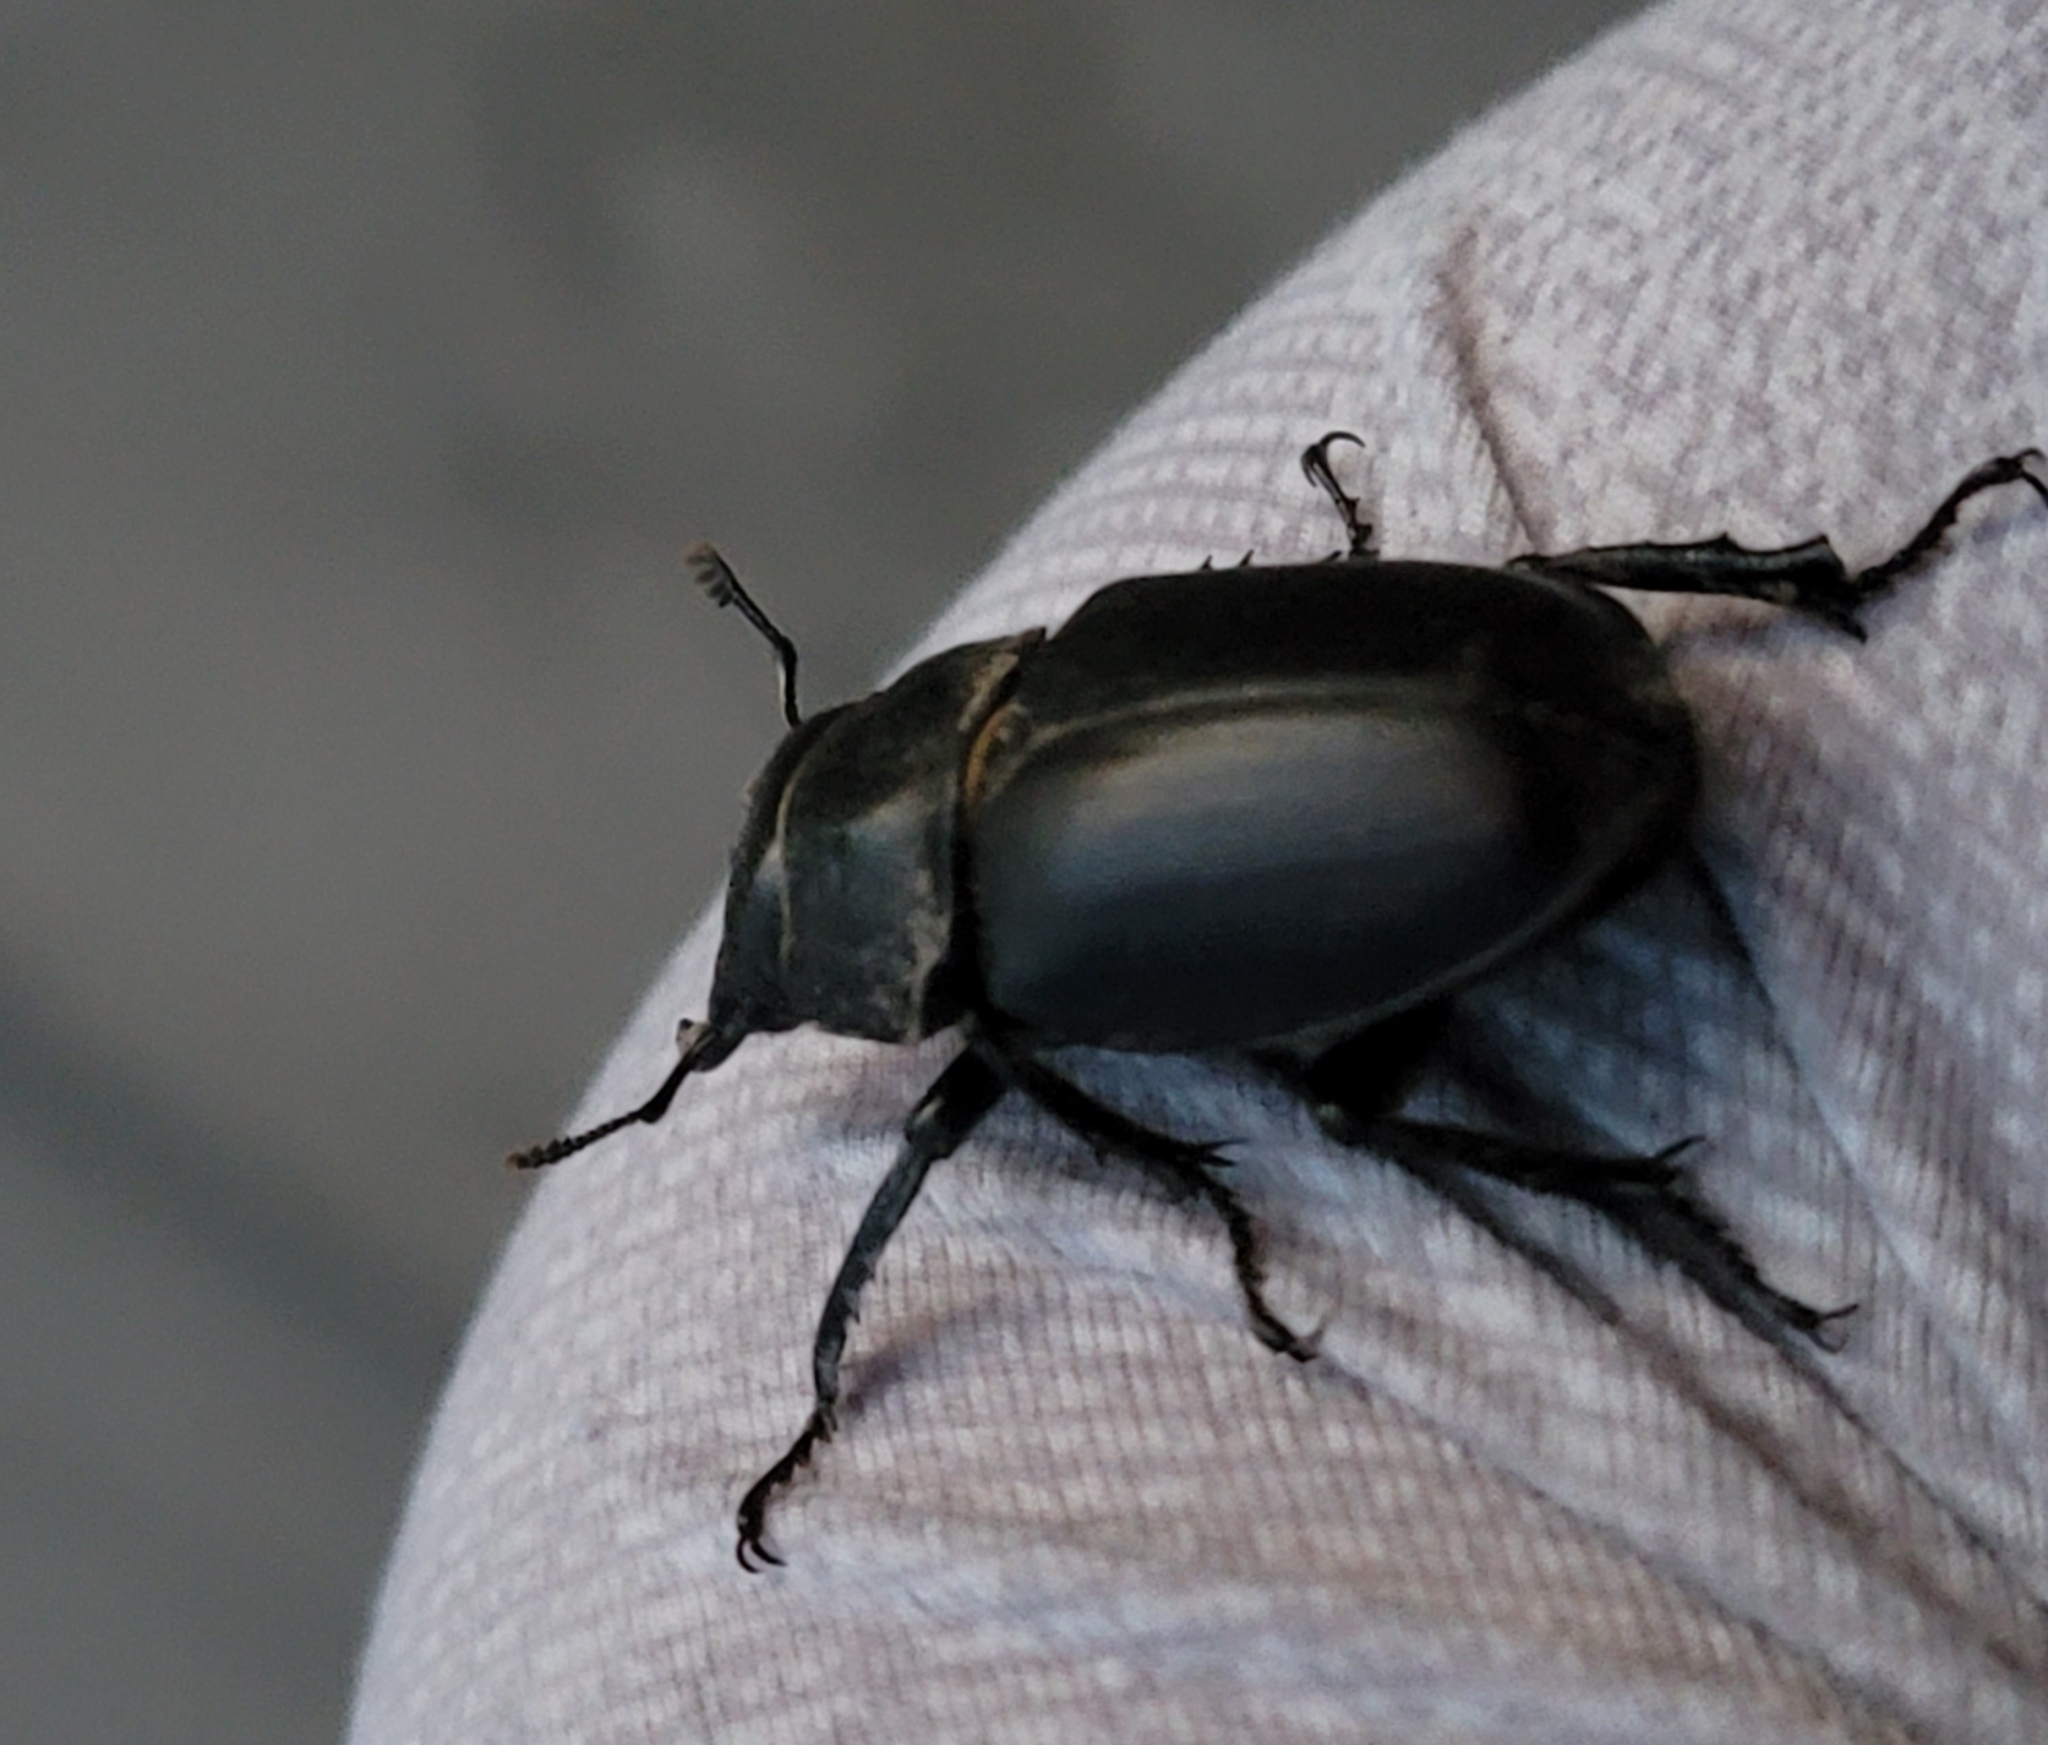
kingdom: Animalia
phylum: Arthropoda
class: Insecta
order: Coleoptera
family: Lucanidae
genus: Lucanus
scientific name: Lucanus mazama
